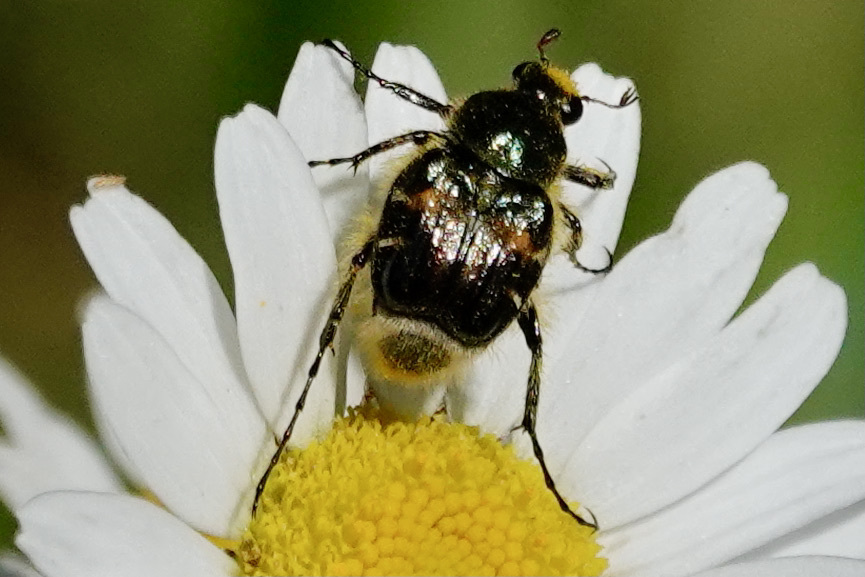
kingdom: Animalia
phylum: Arthropoda
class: Insecta
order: Coleoptera
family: Scarabaeidae
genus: Trichiotinus
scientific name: Trichiotinus affinis
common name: Hairy flower scarab
